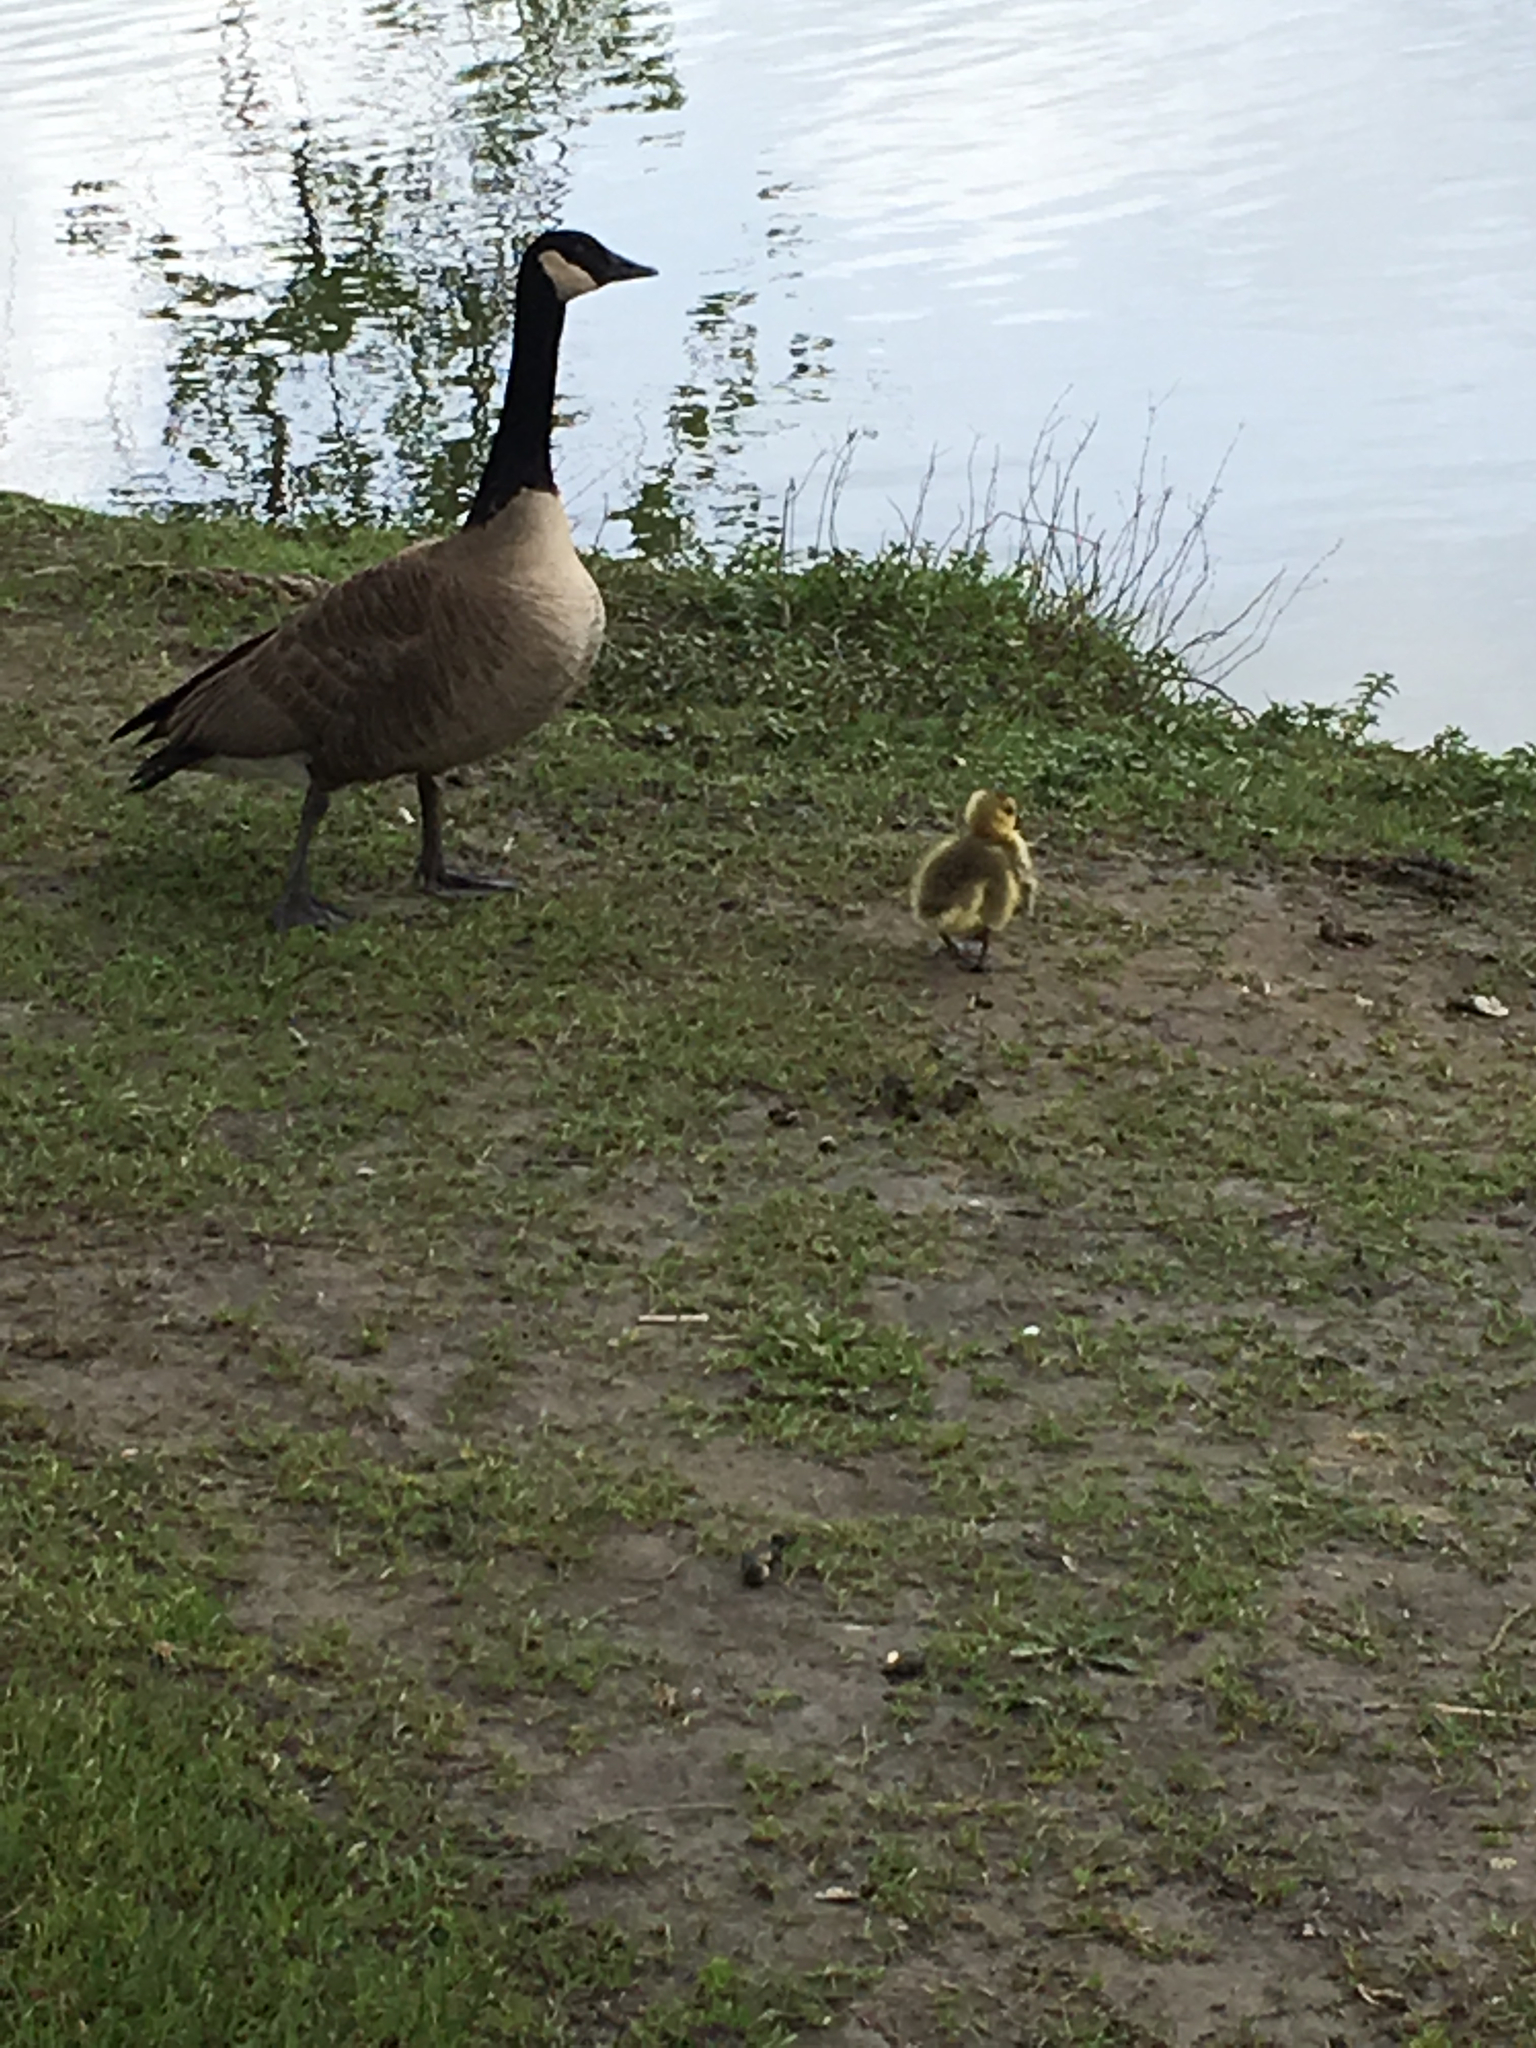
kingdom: Animalia
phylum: Chordata
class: Aves
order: Anseriformes
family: Anatidae
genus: Branta
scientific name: Branta canadensis
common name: Canada goose
